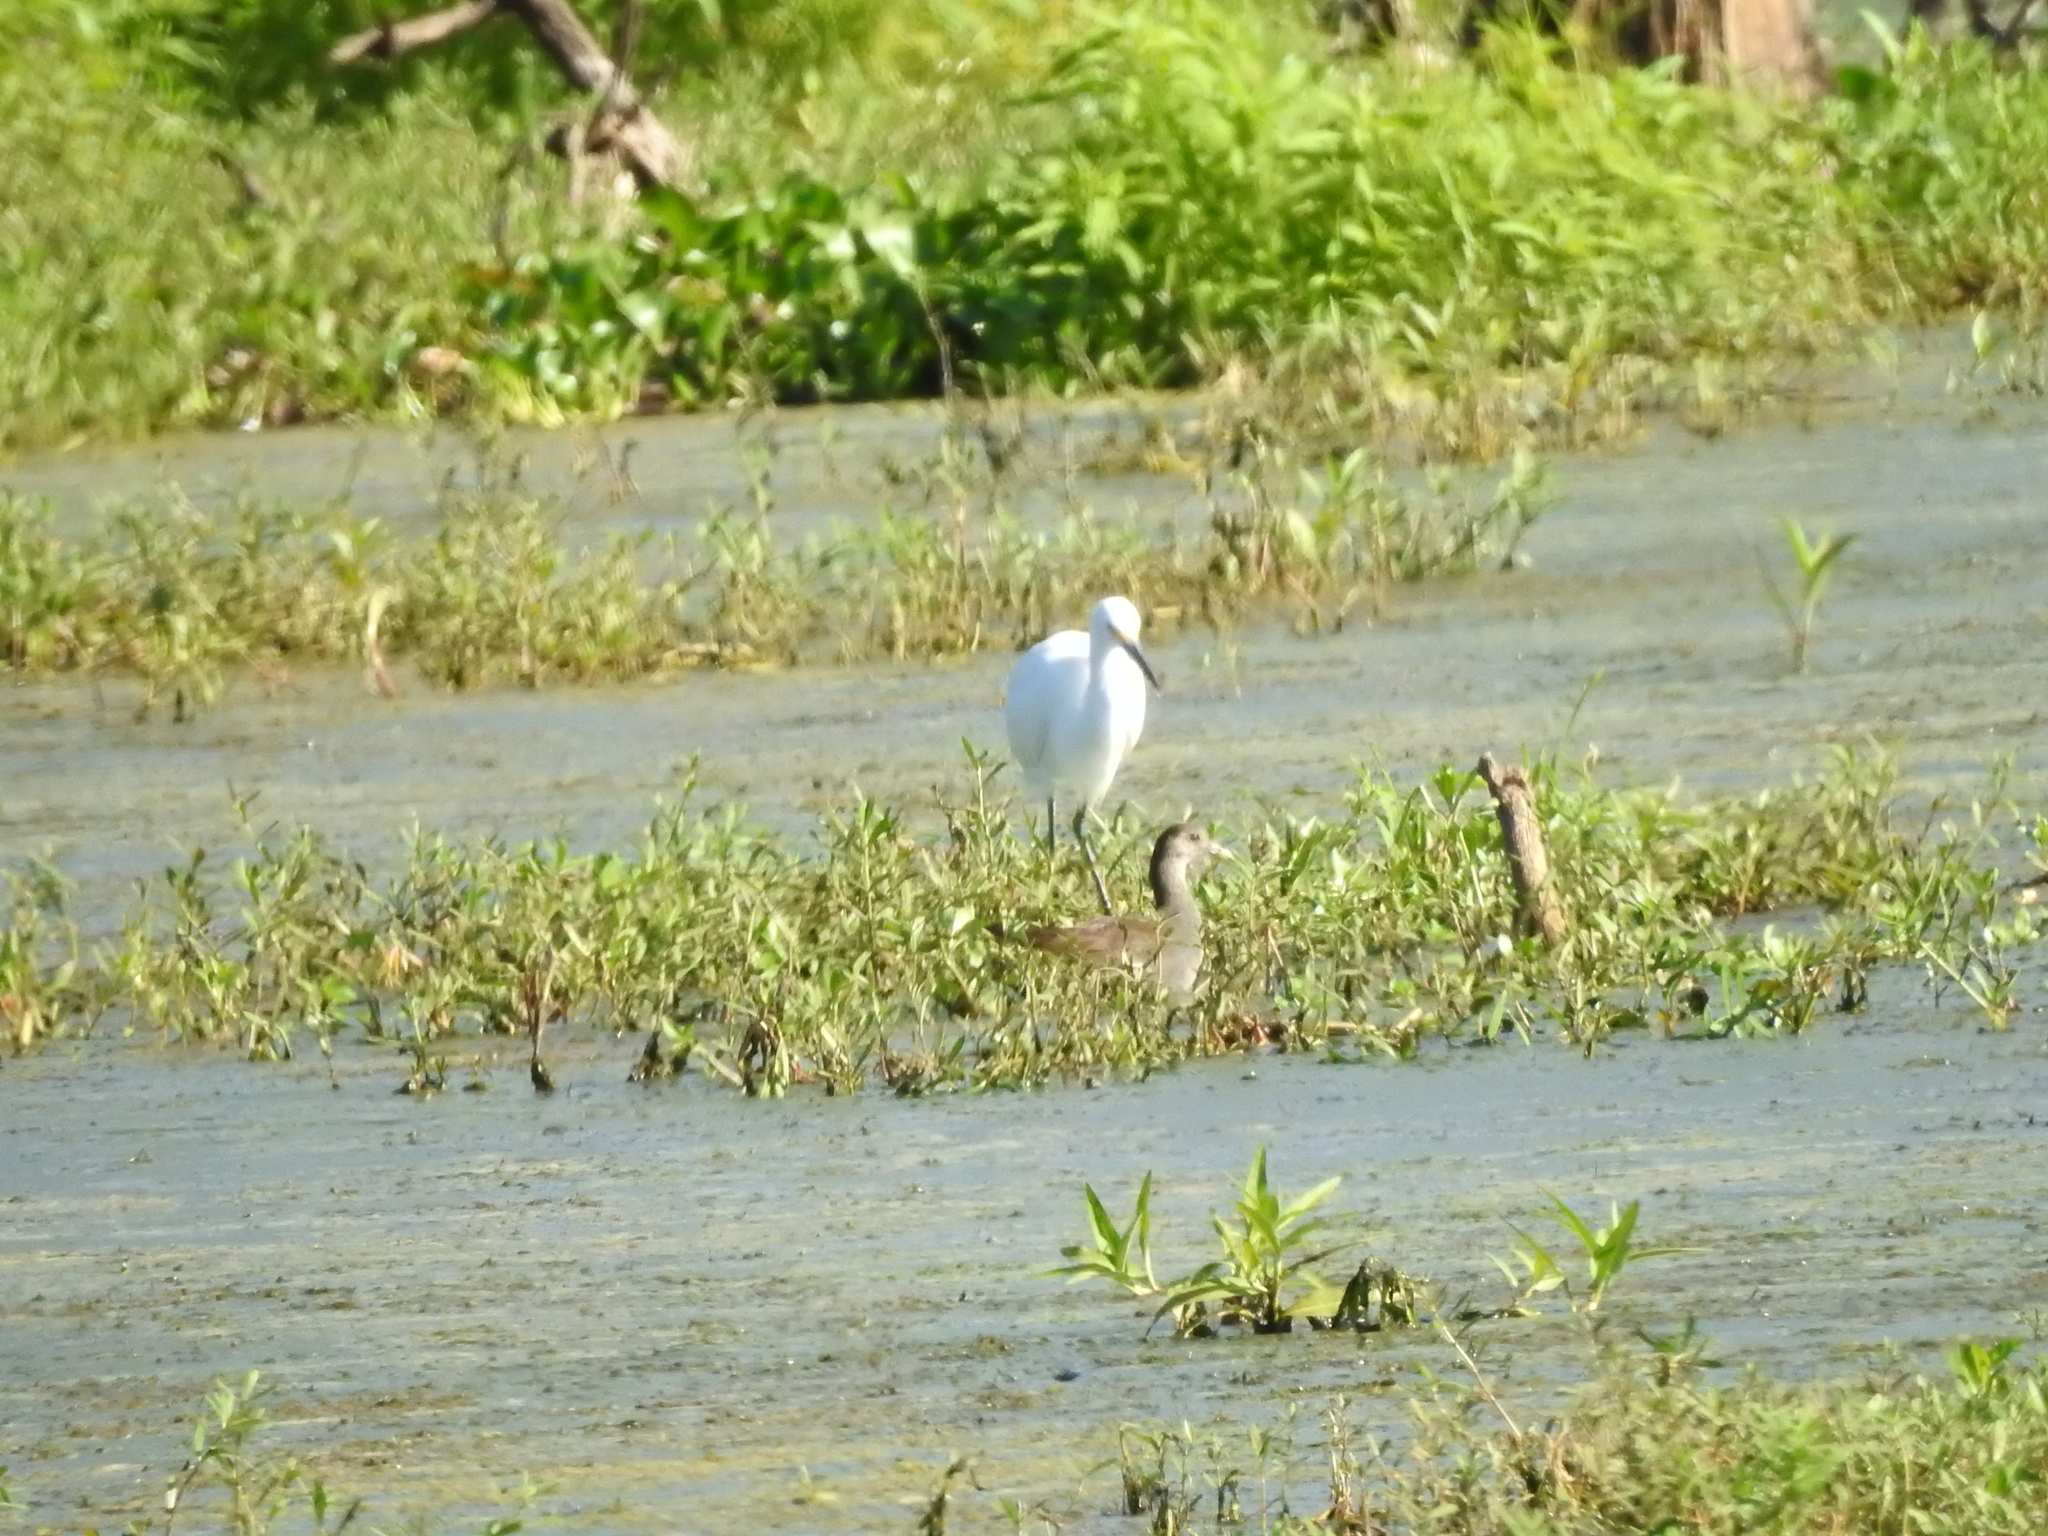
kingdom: Animalia
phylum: Chordata
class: Aves
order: Gruiformes
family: Rallidae
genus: Gallinula
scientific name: Gallinula chloropus
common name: Common moorhen
